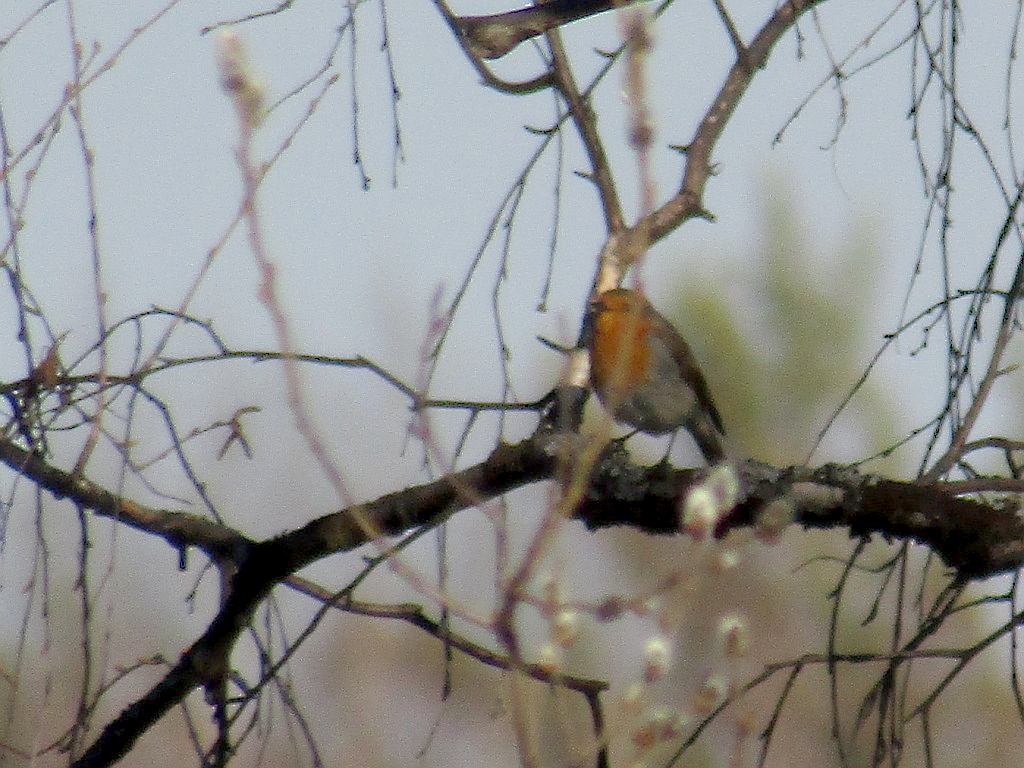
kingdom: Animalia
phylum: Chordata
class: Aves
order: Passeriformes
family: Muscicapidae
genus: Erithacus
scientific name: Erithacus rubecula
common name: European robin
